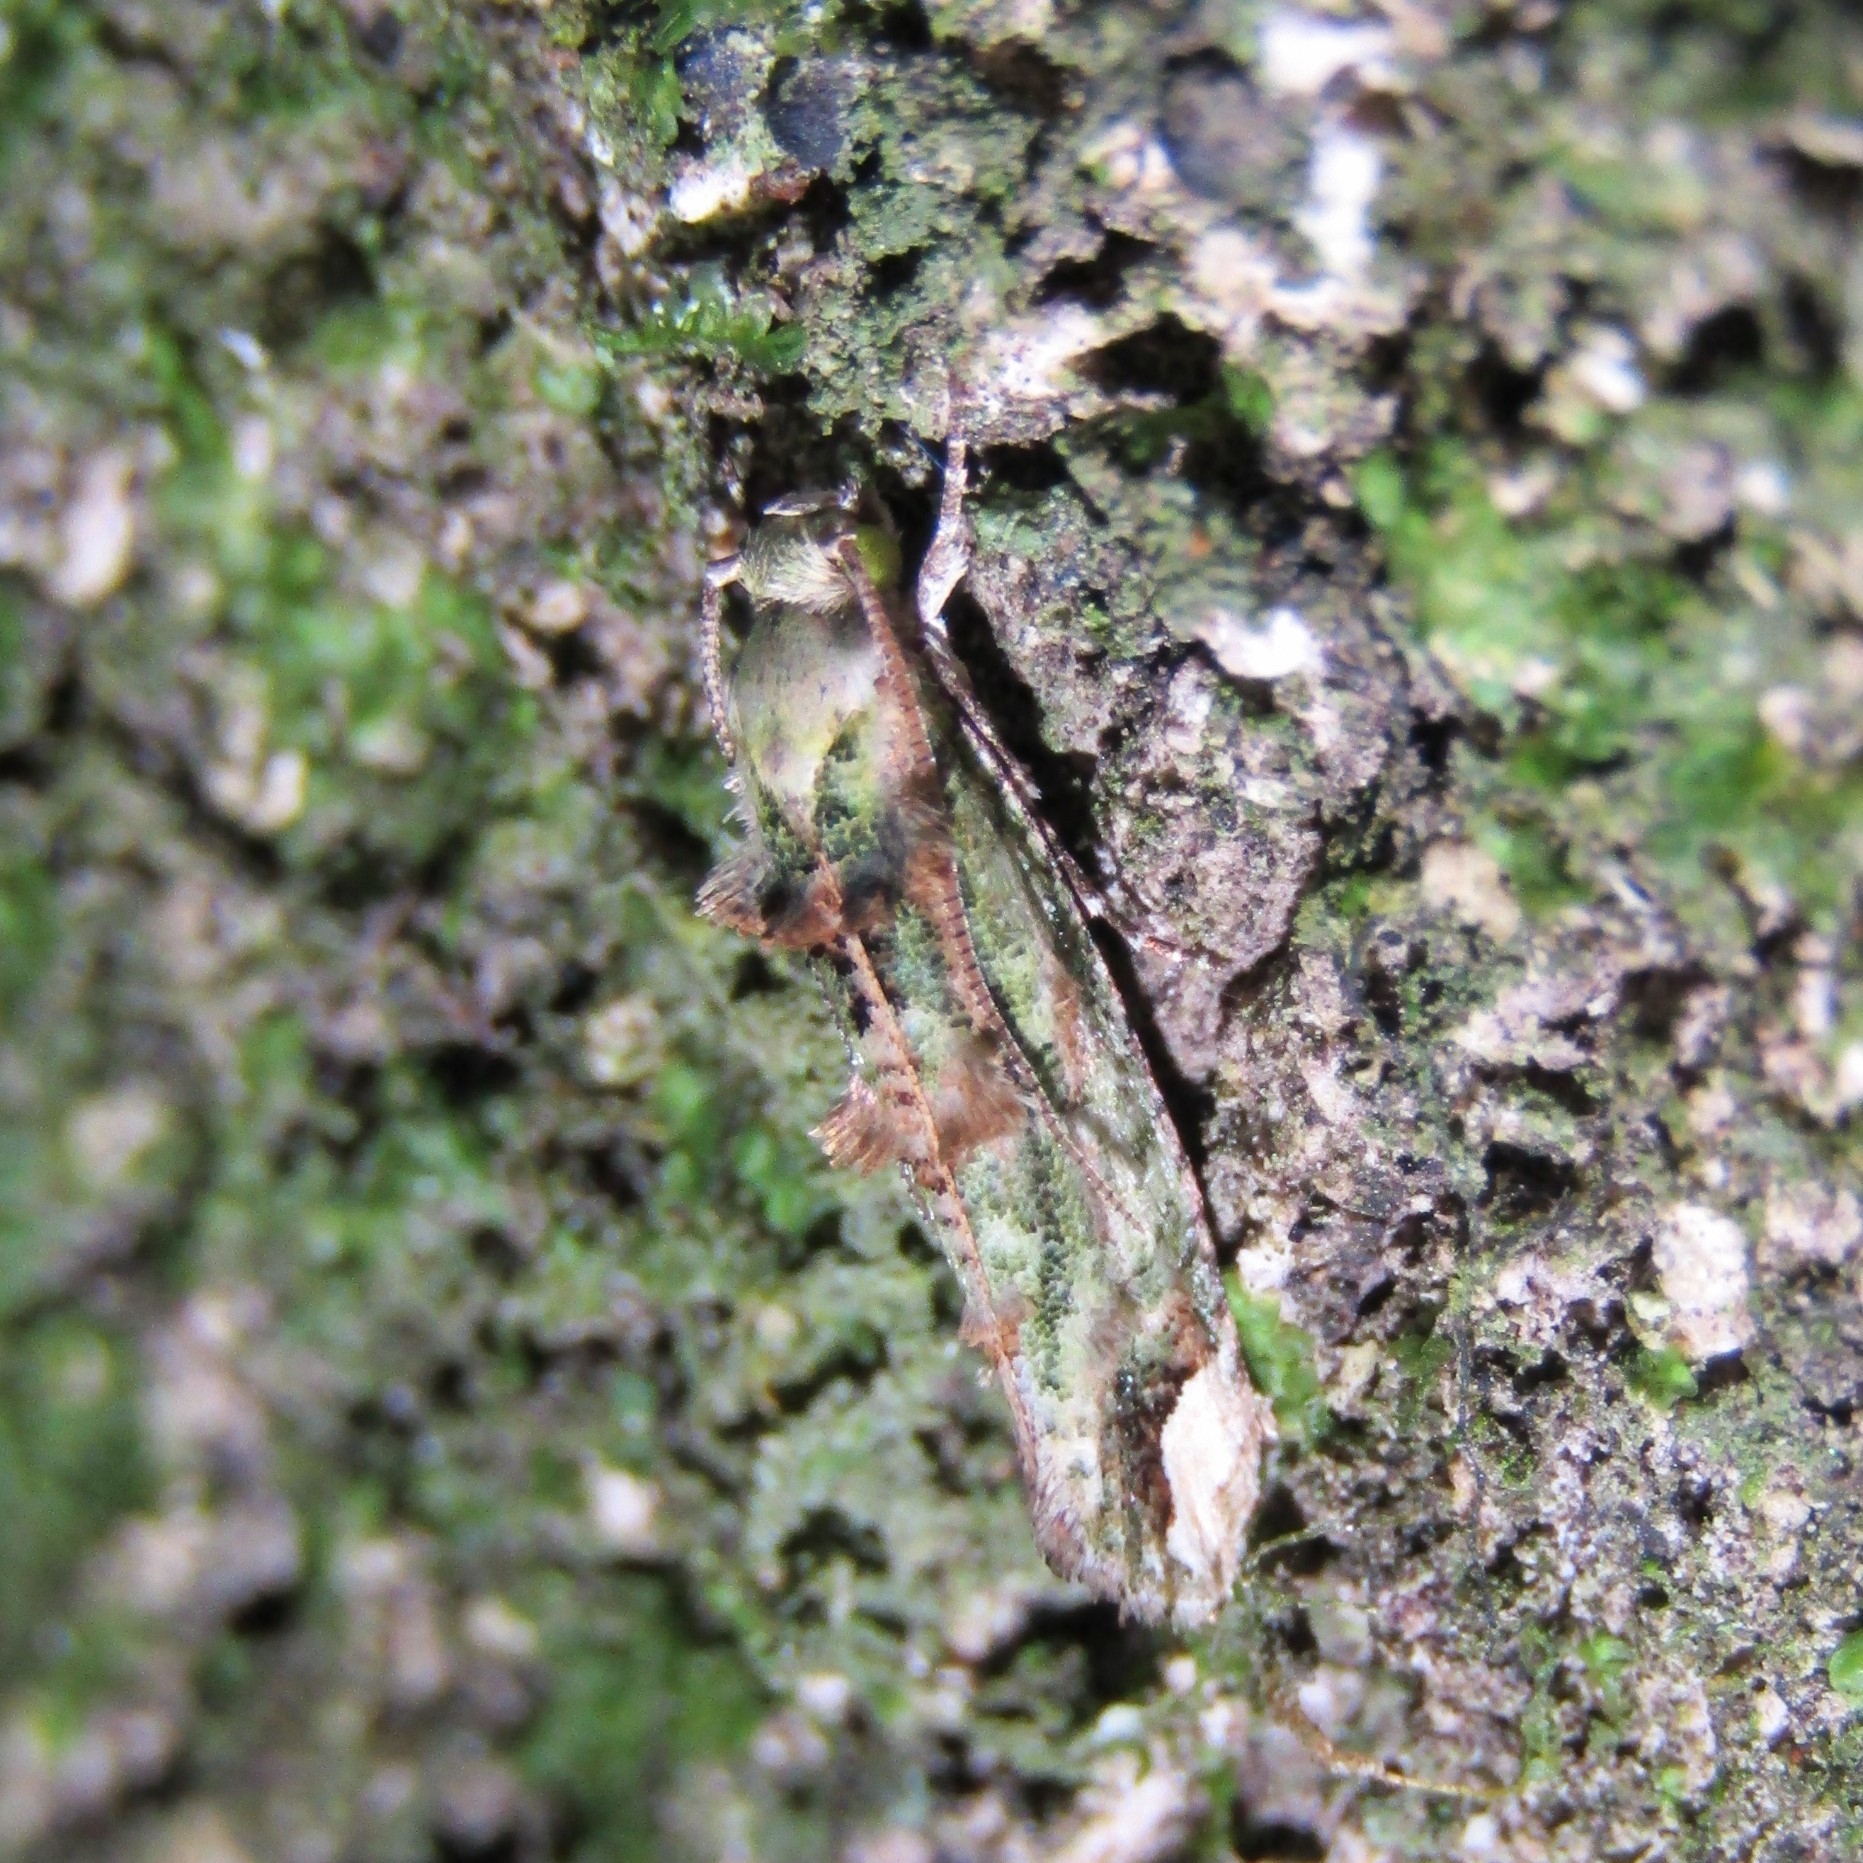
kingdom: Animalia
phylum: Arthropoda
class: Insecta
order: Lepidoptera
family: Tineidae
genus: Lysiphragma
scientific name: Lysiphragma mixochlora
